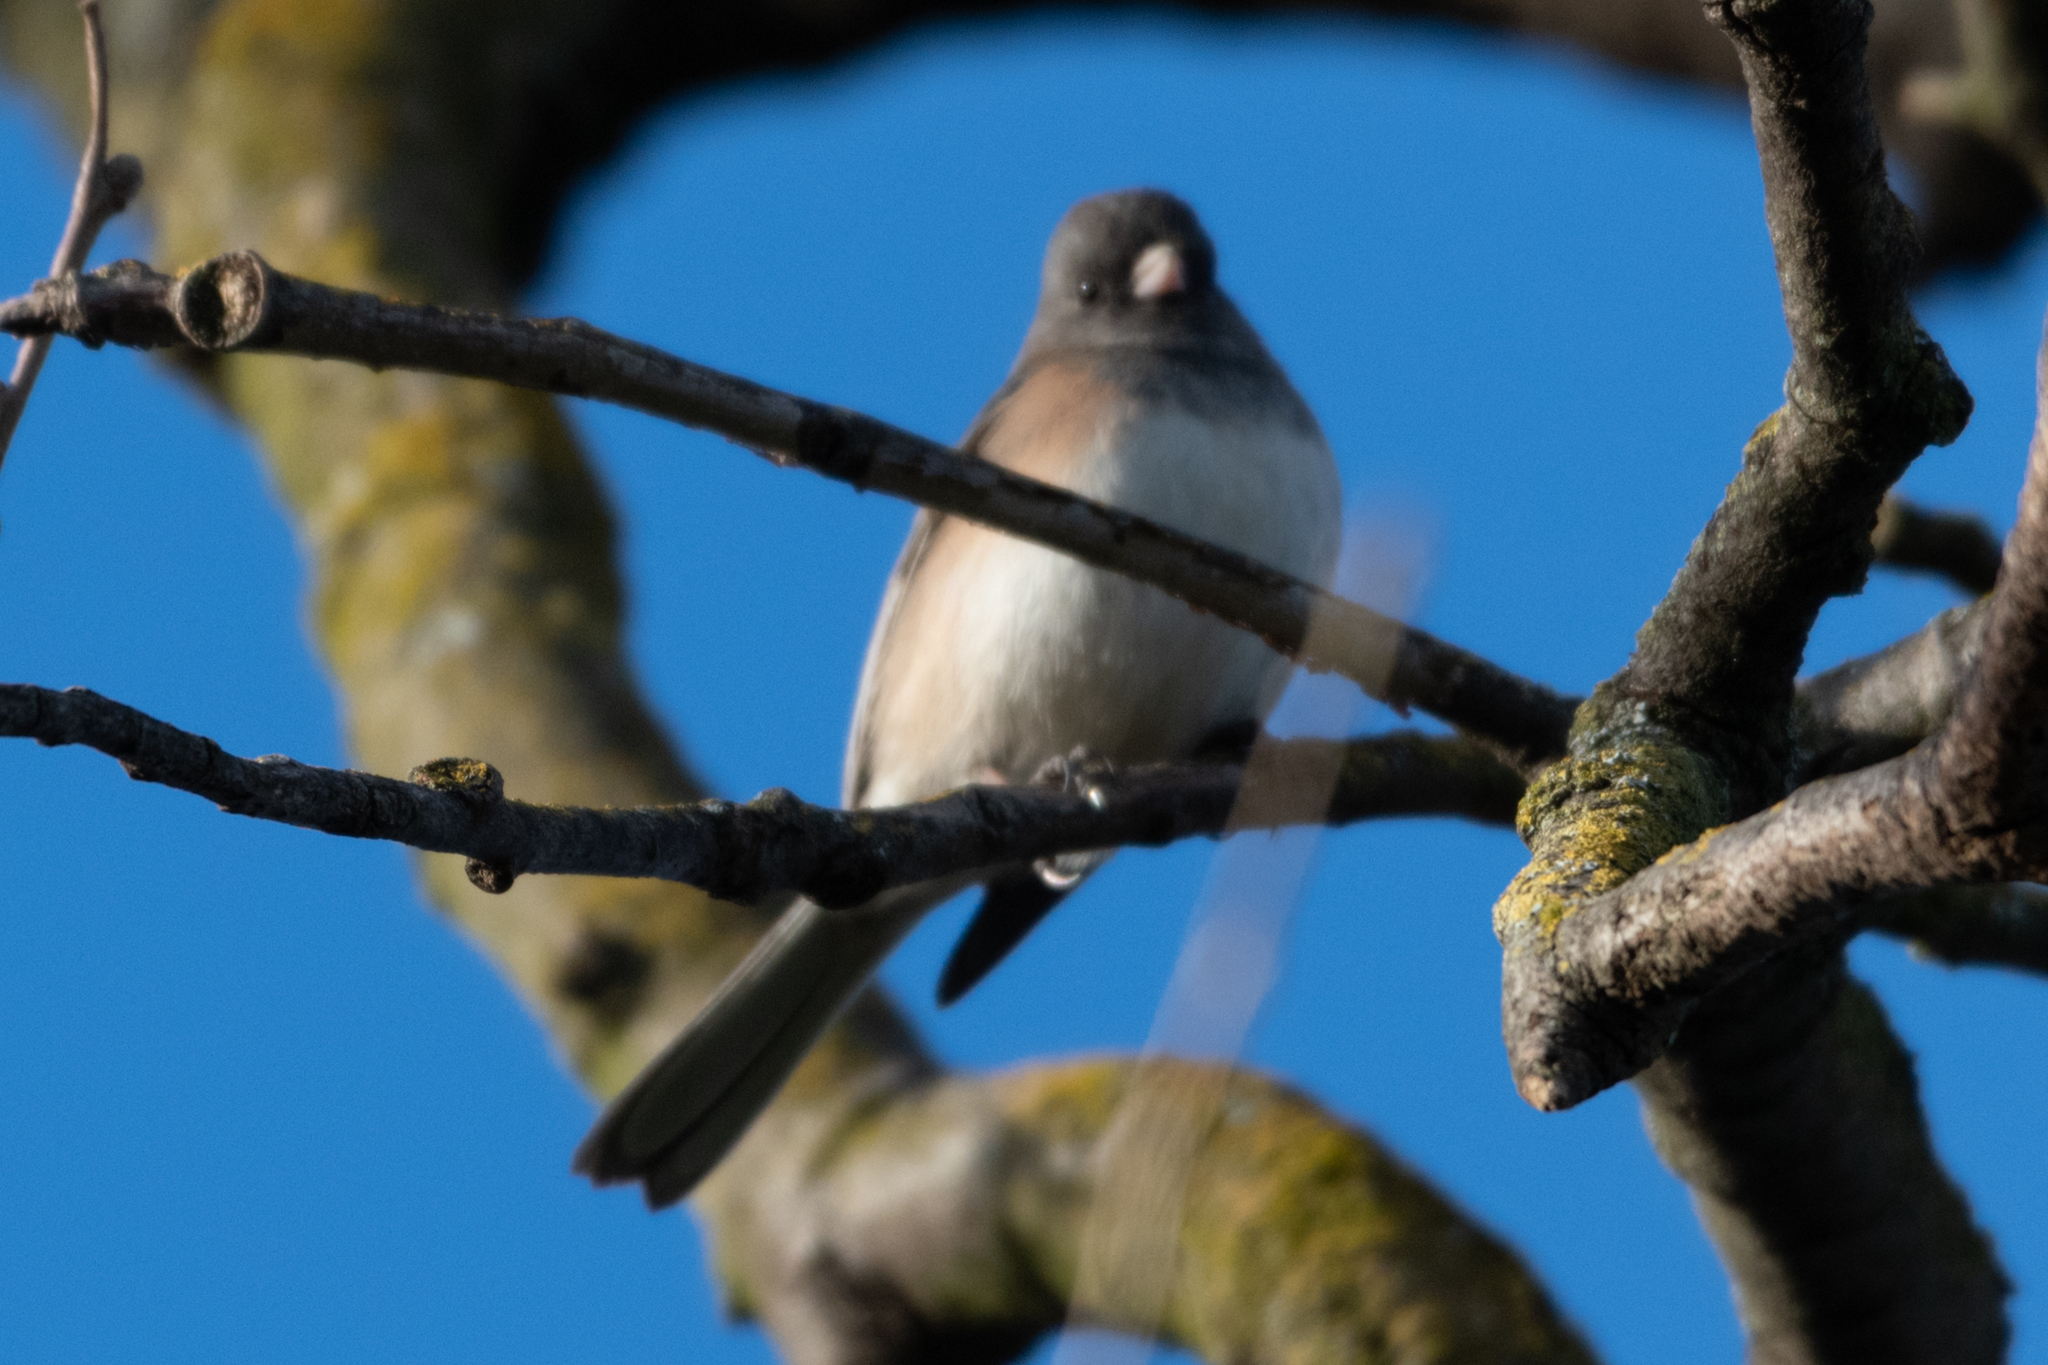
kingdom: Animalia
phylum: Chordata
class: Aves
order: Passeriformes
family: Passerellidae
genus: Junco
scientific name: Junco hyemalis
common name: Dark-eyed junco
